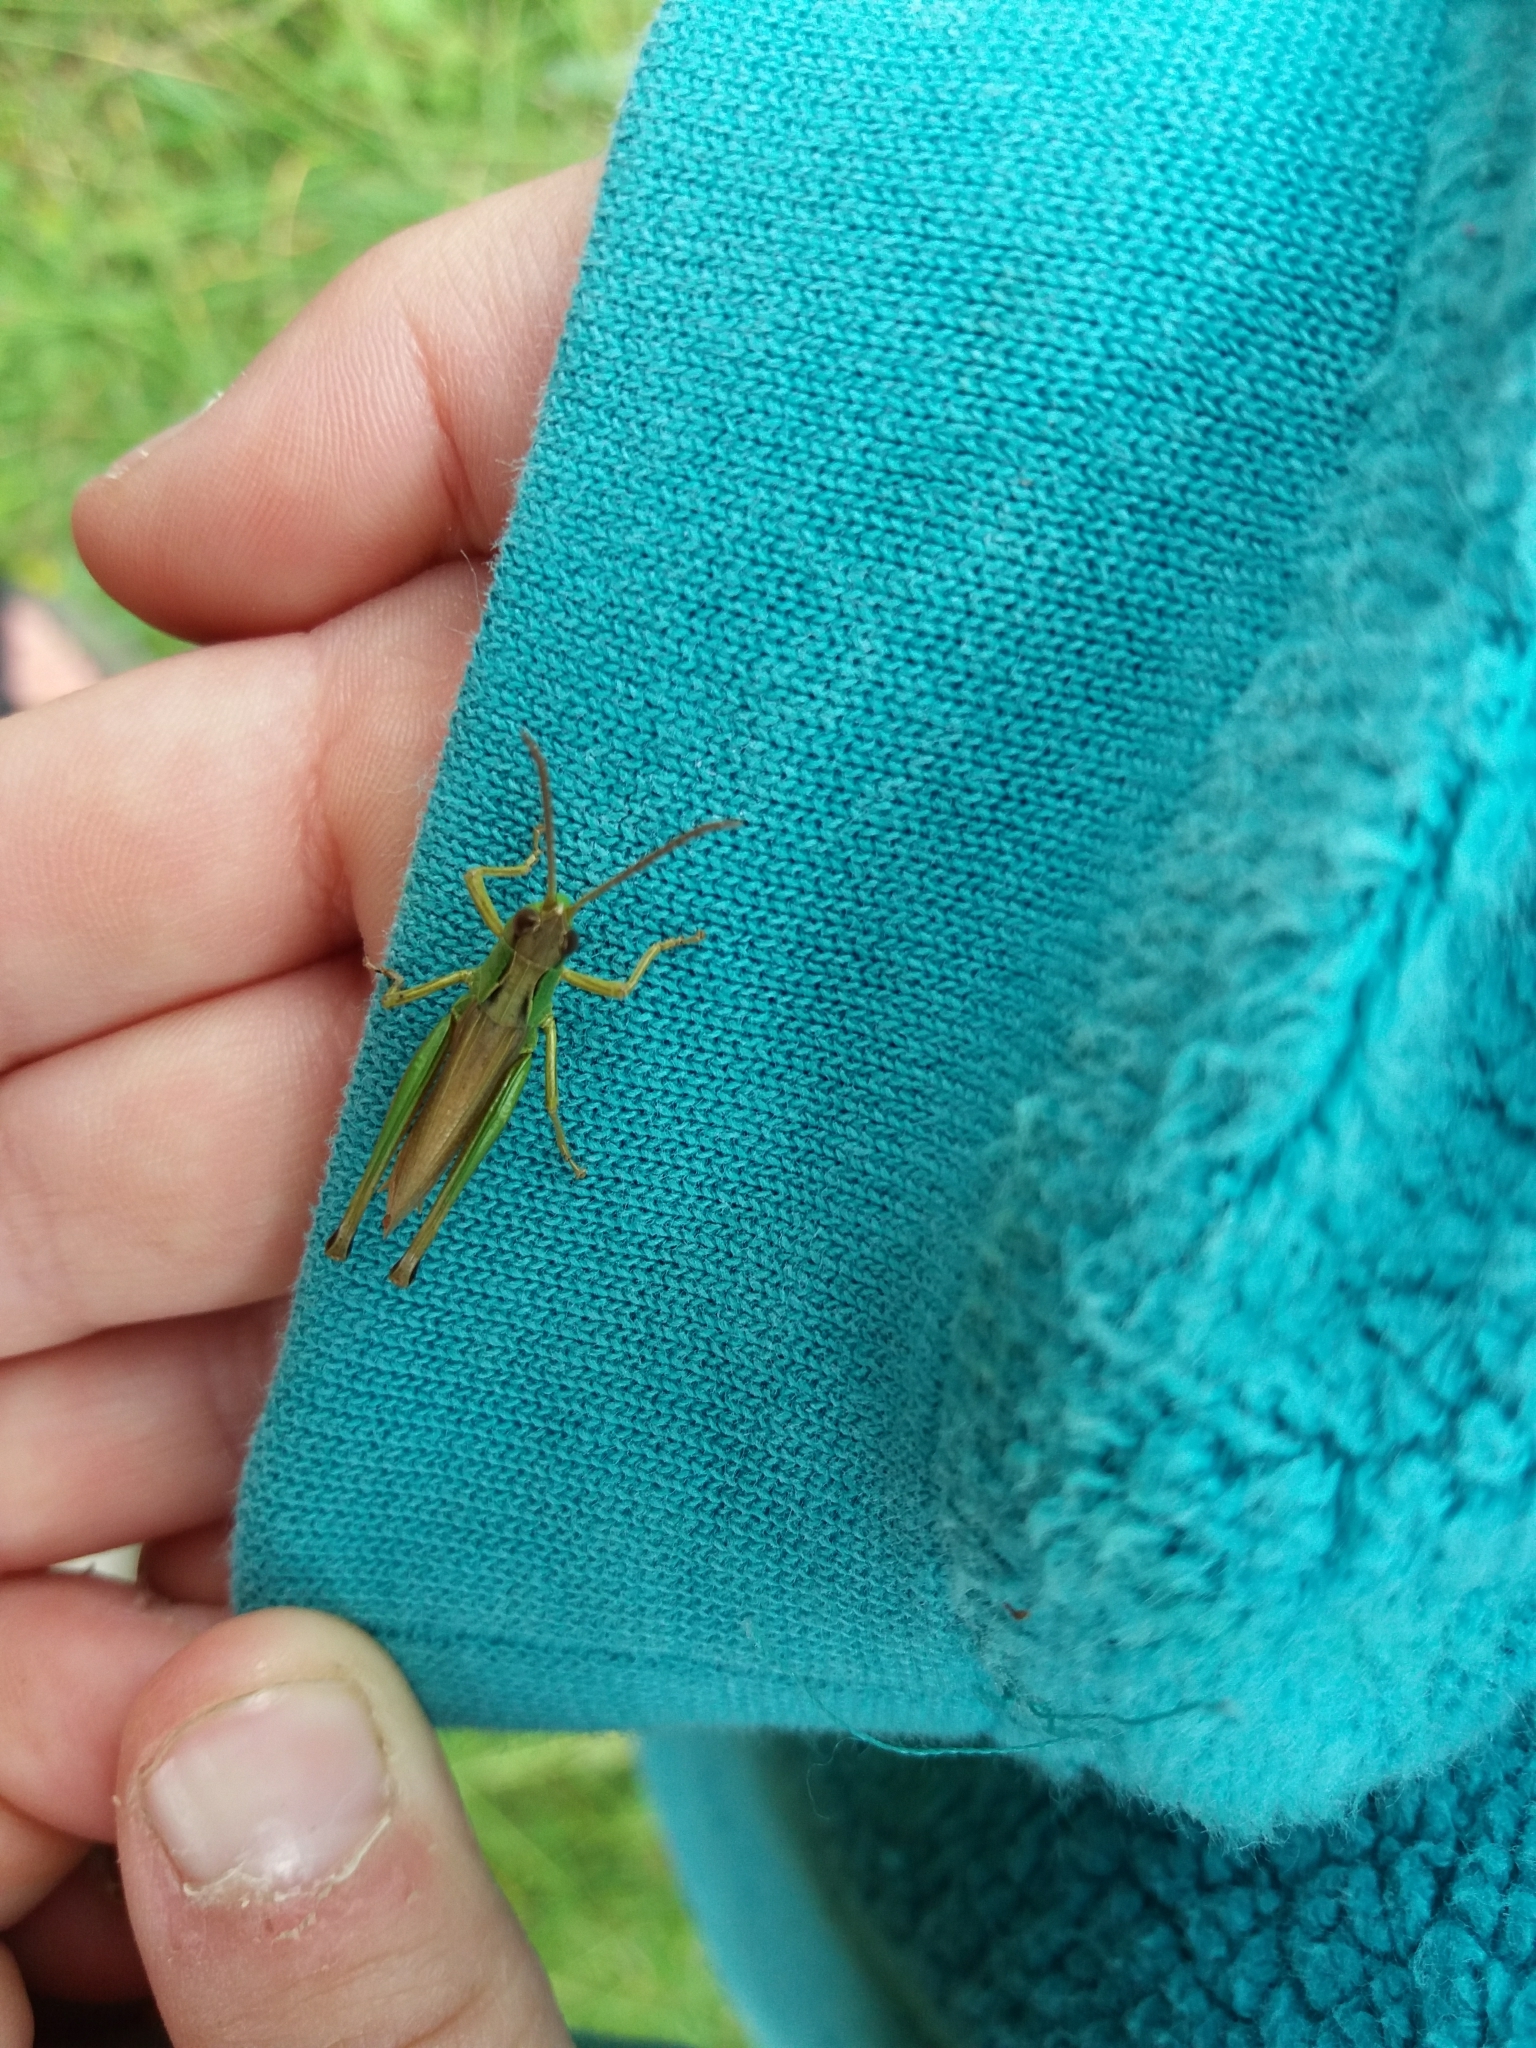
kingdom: Animalia
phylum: Arthropoda
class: Insecta
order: Orthoptera
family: Acrididae
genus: Pseudochorthippus
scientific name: Pseudochorthippus parallelus
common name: Meadow grasshopper
